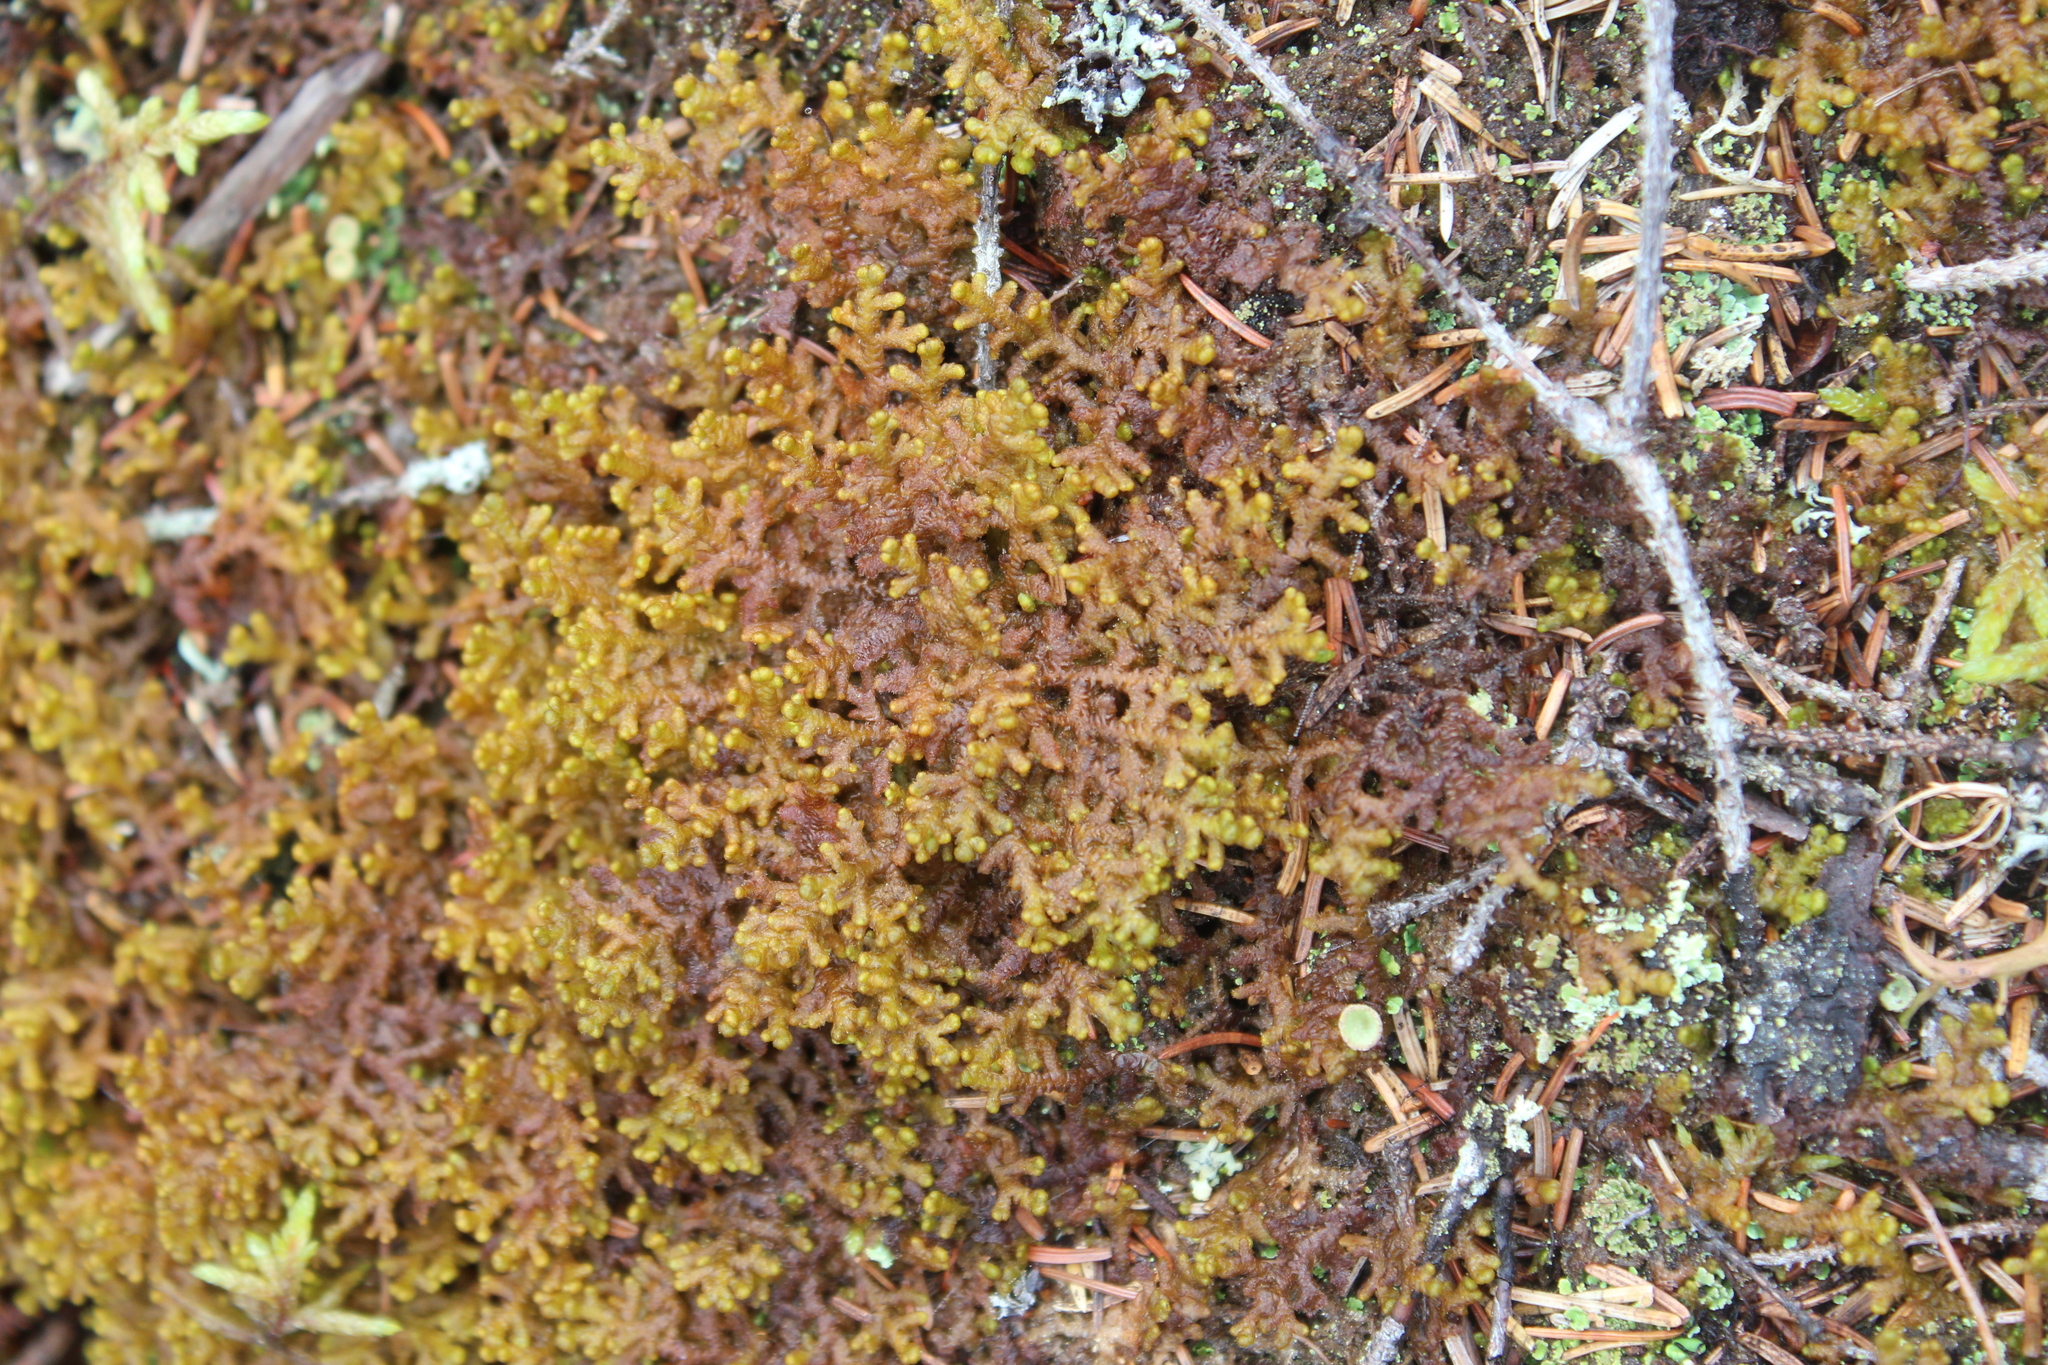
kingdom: Plantae
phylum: Marchantiophyta
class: Jungermanniopsida
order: Ptilidiales
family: Ptilidiaceae
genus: Ptilidium
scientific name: Ptilidium ciliare
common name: Ciliate fringewort
